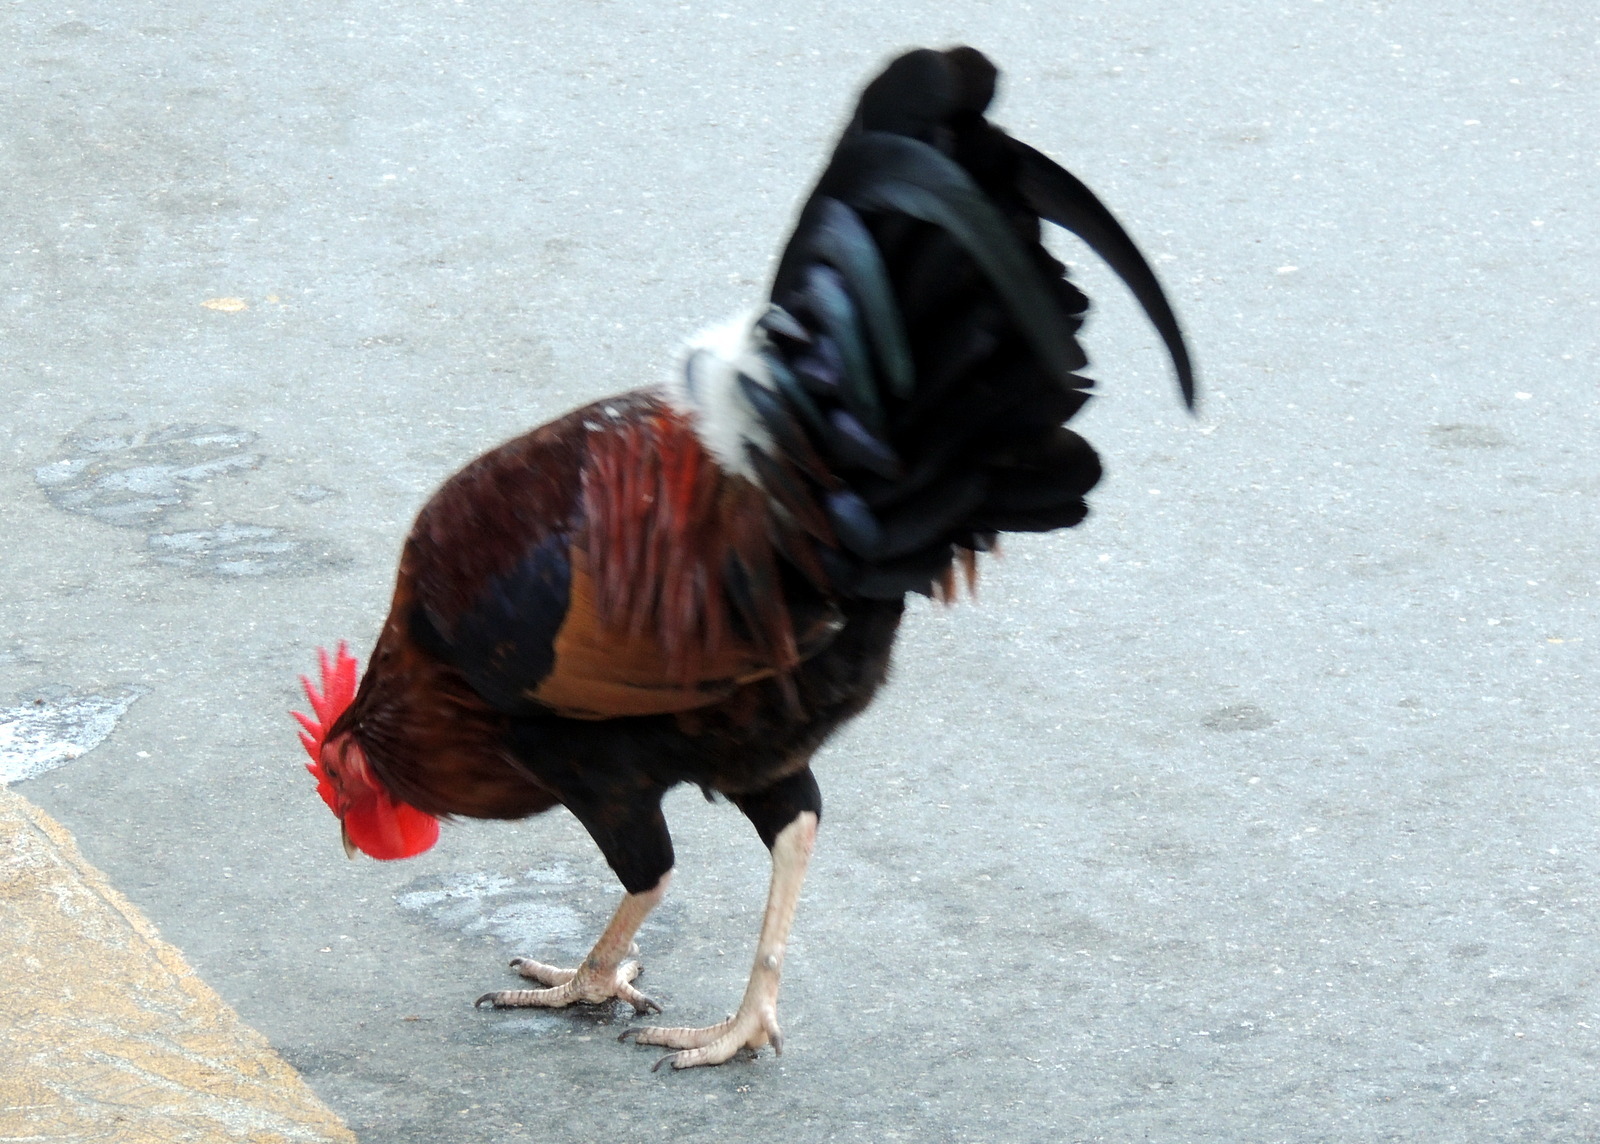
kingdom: Animalia
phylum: Chordata
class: Aves
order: Galliformes
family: Phasianidae
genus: Gallus
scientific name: Gallus gallus
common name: Red junglefowl
